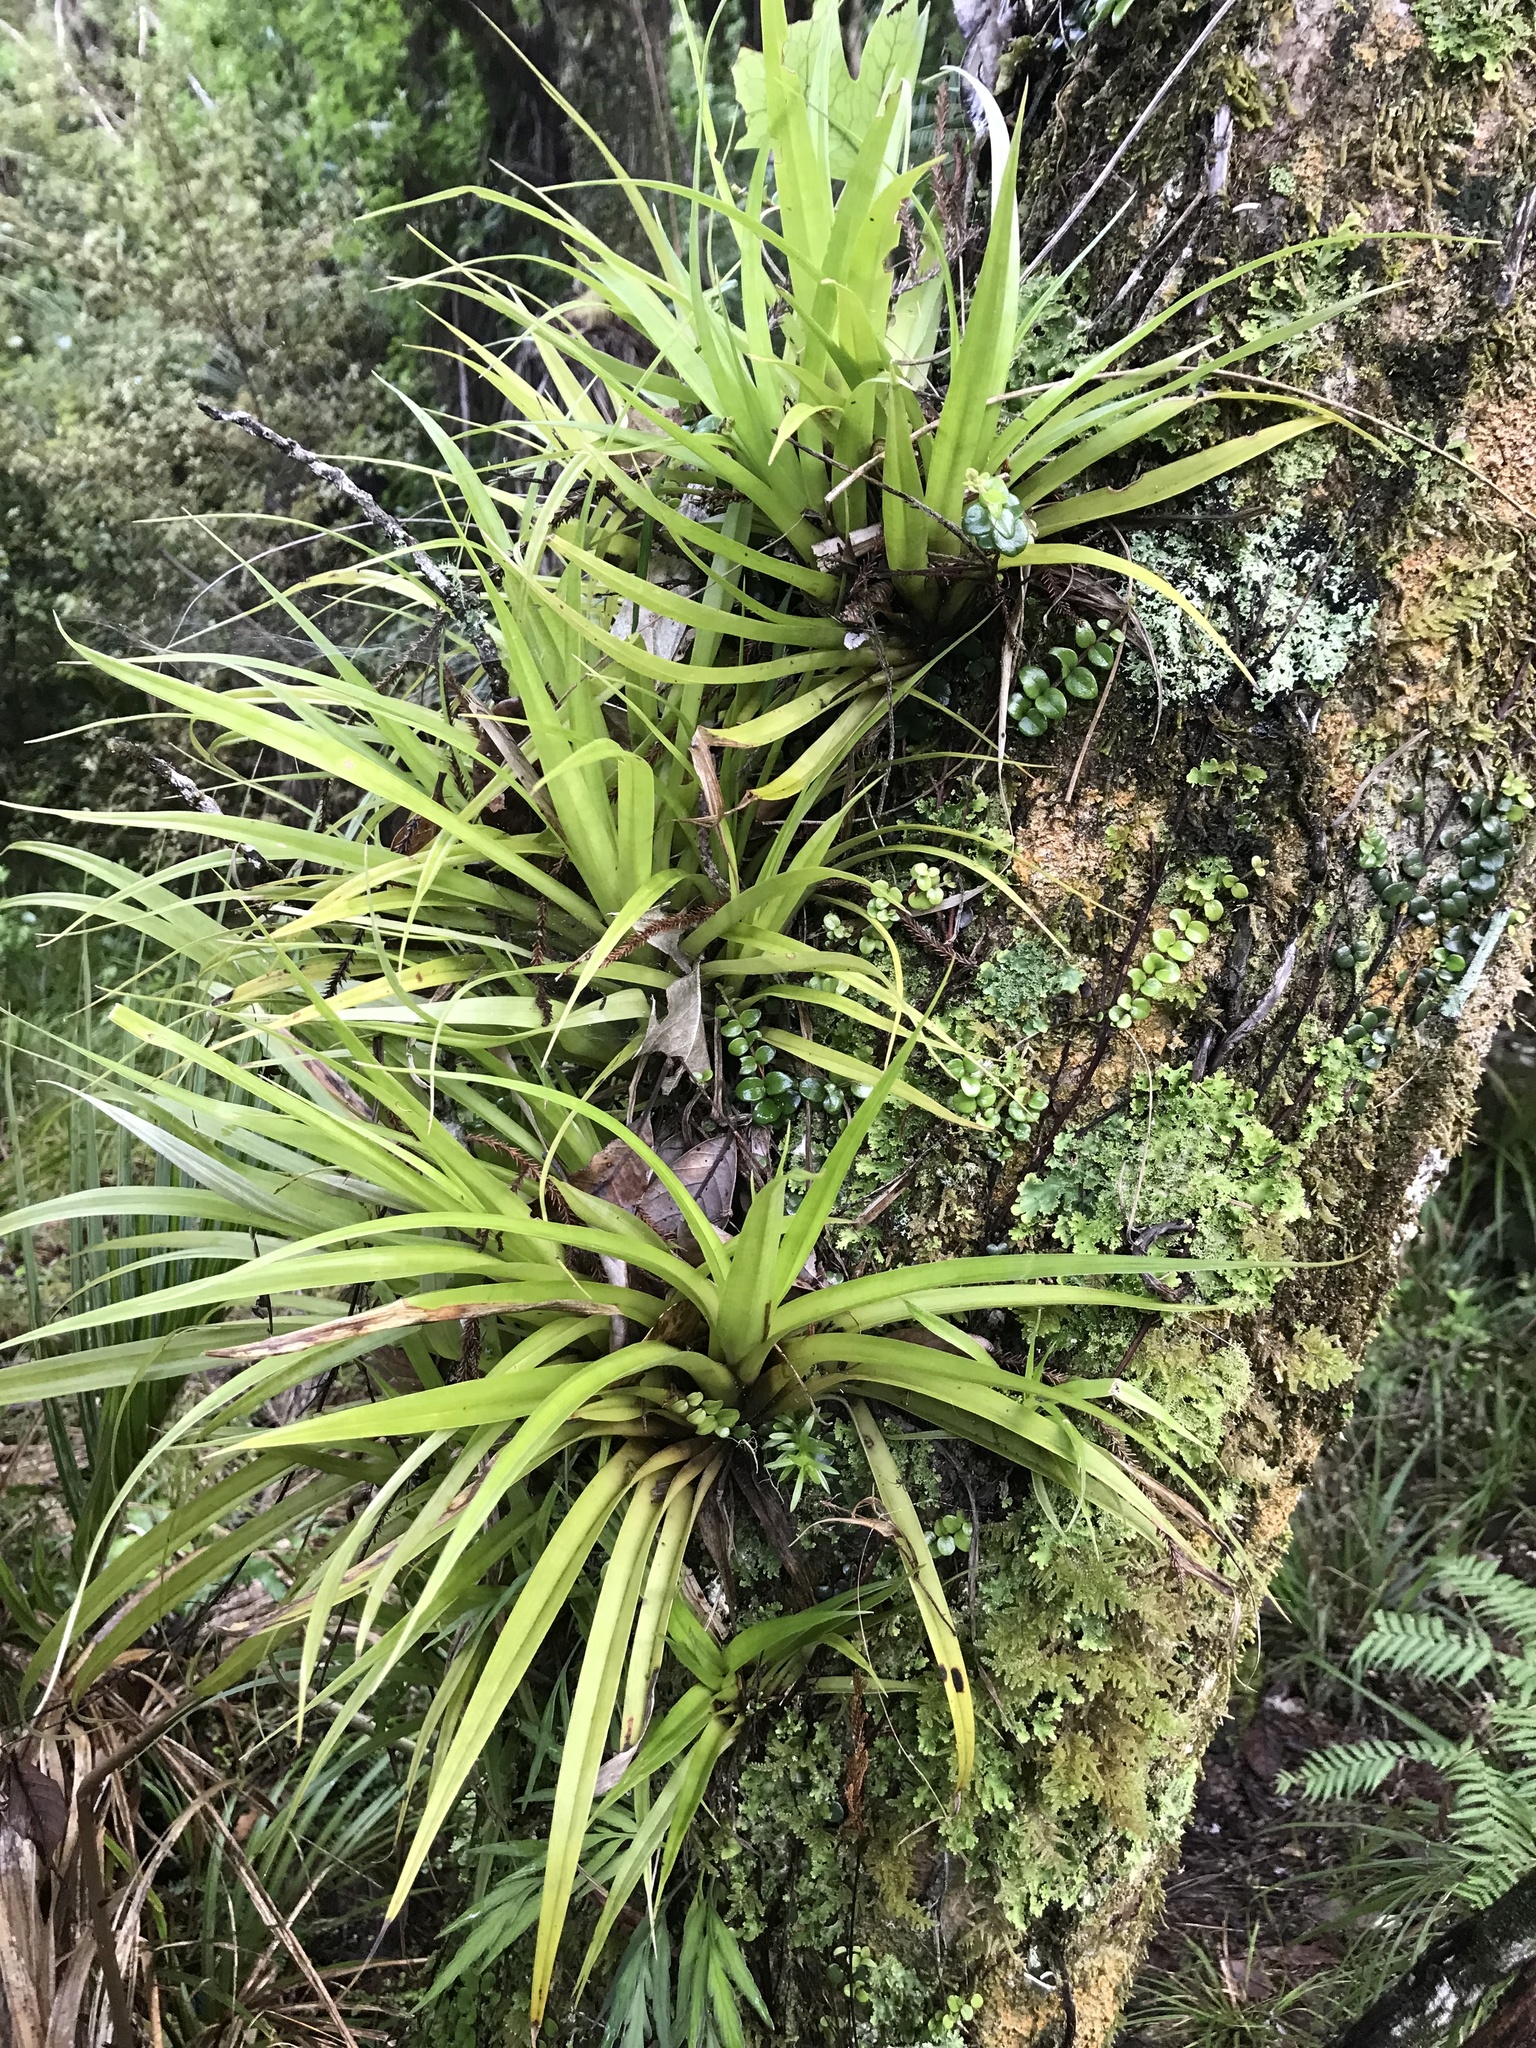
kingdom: Plantae
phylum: Tracheophyta
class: Liliopsida
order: Asparagales
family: Asteliaceae
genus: Astelia
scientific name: Astelia hastata
